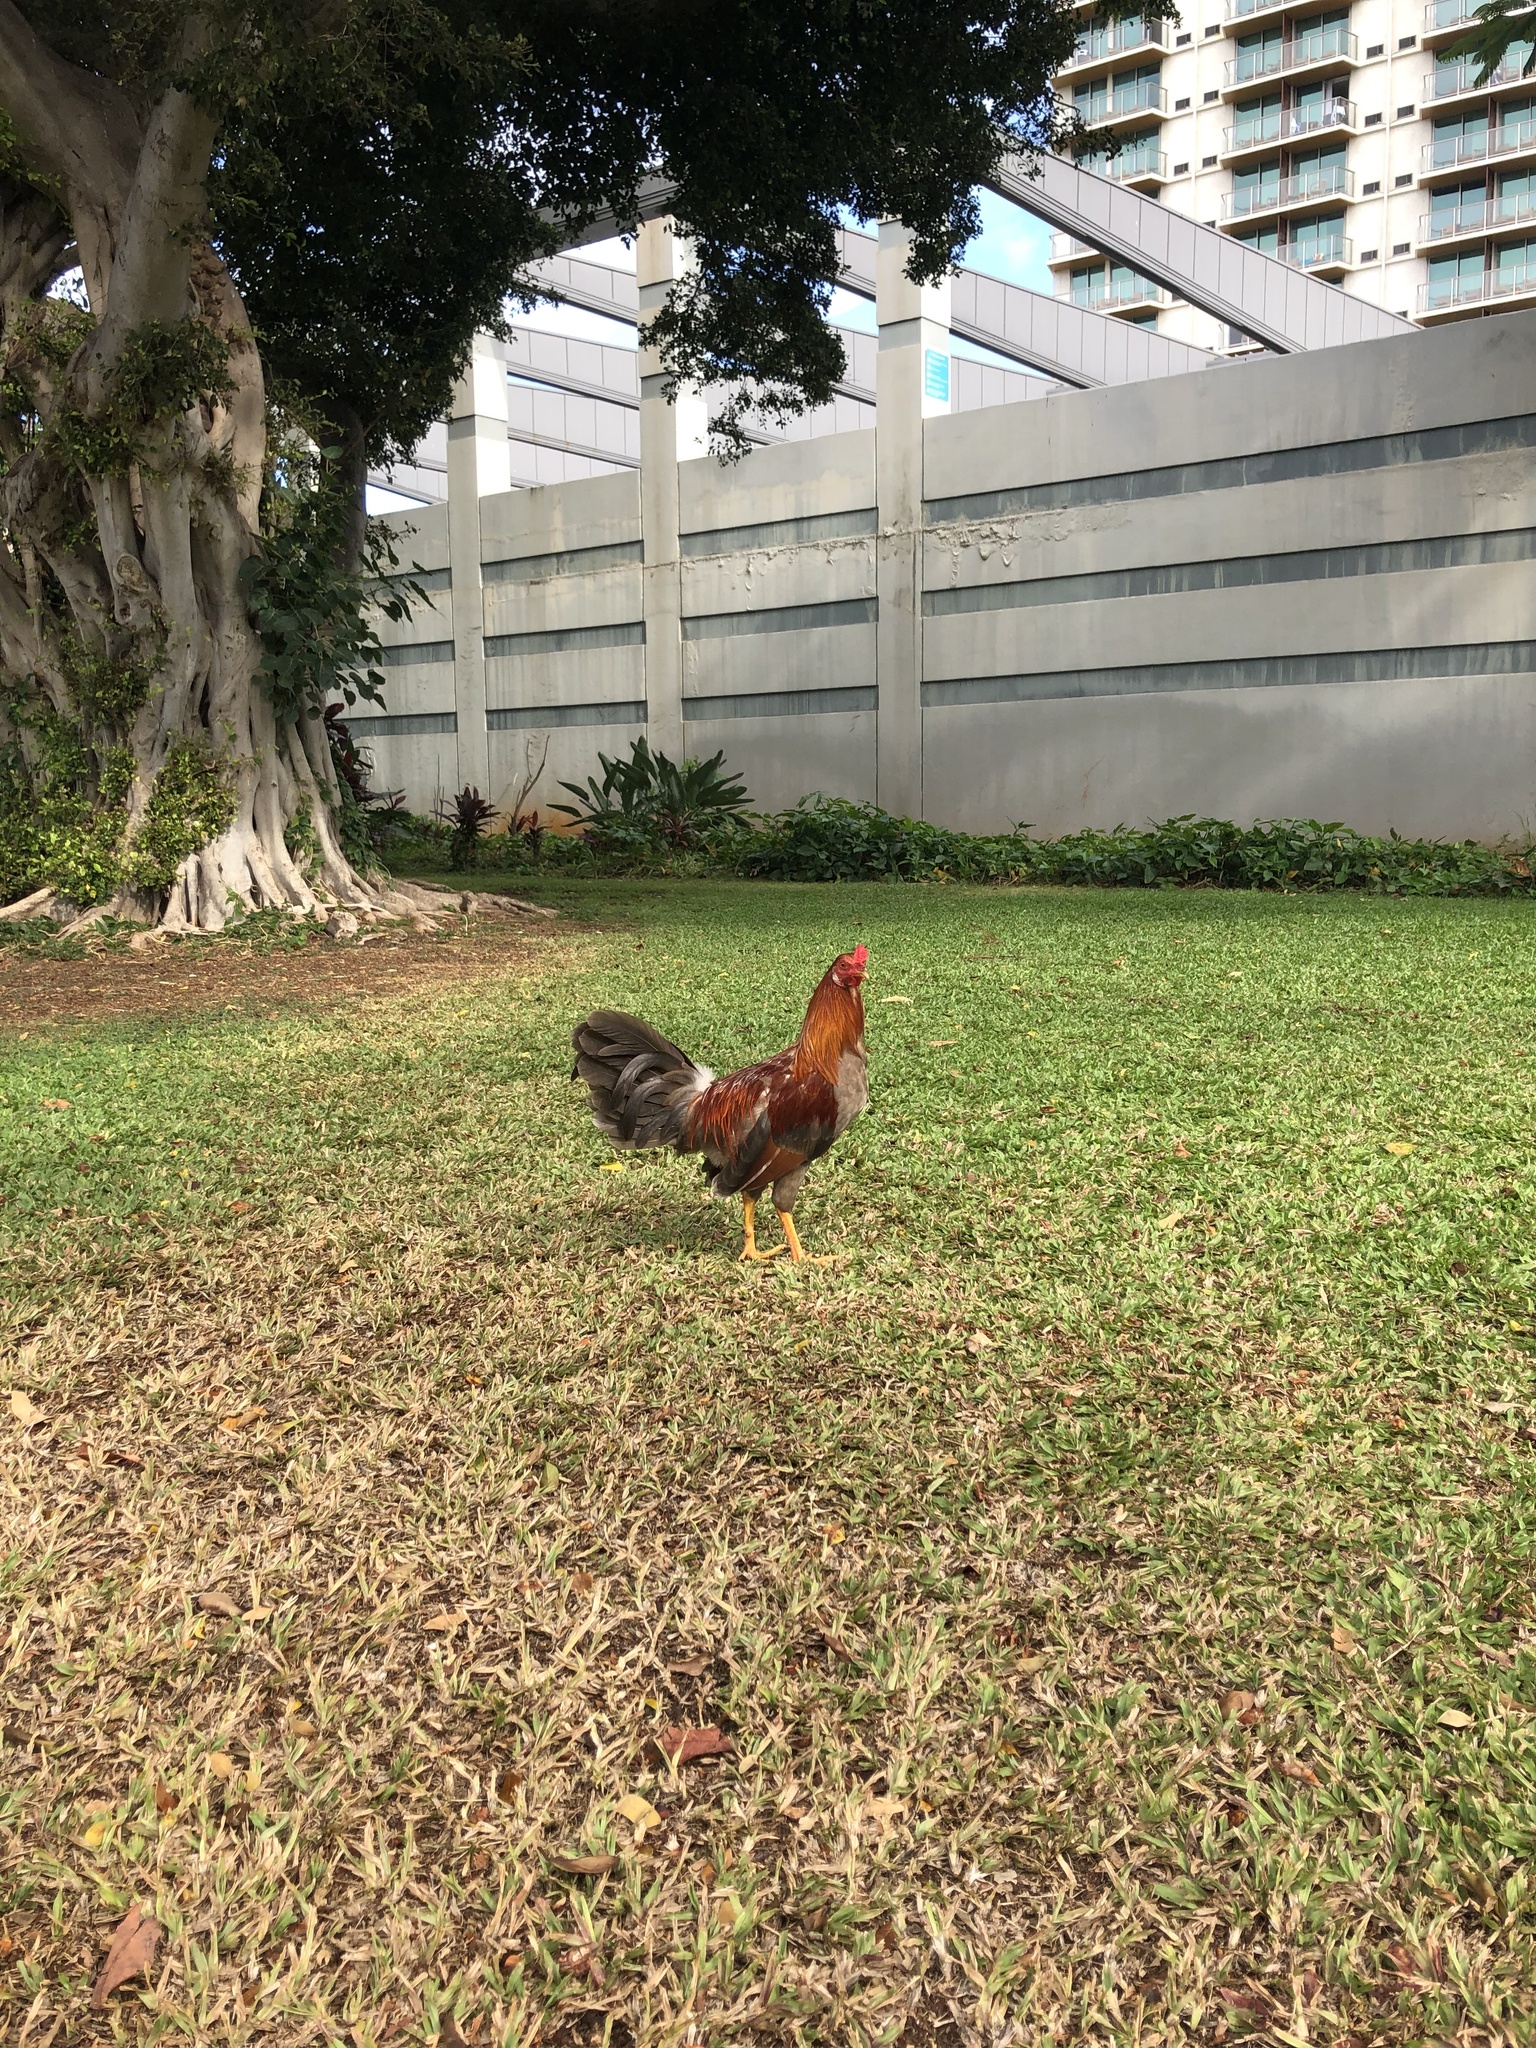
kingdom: Animalia
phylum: Chordata
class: Aves
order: Galliformes
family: Phasianidae
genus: Gallus
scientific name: Gallus gallus
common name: Red junglefowl
